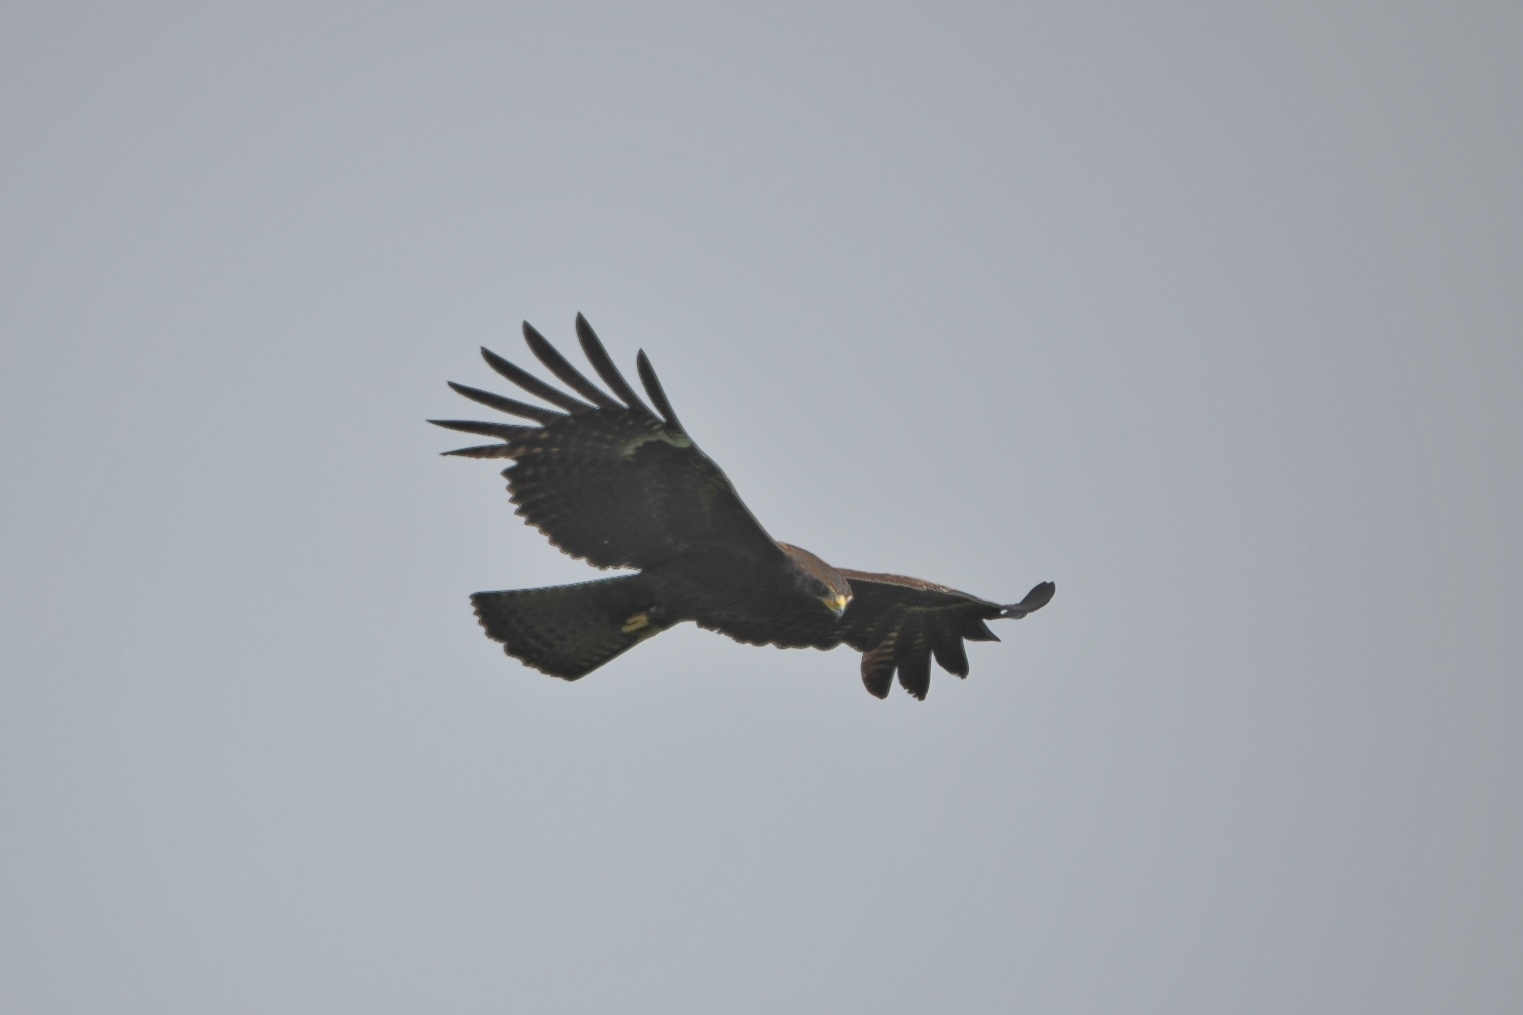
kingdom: Animalia
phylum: Chordata
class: Aves
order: Accipitriformes
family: Accipitridae
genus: Ictinaetus
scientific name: Ictinaetus malayensis
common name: Black eagle
